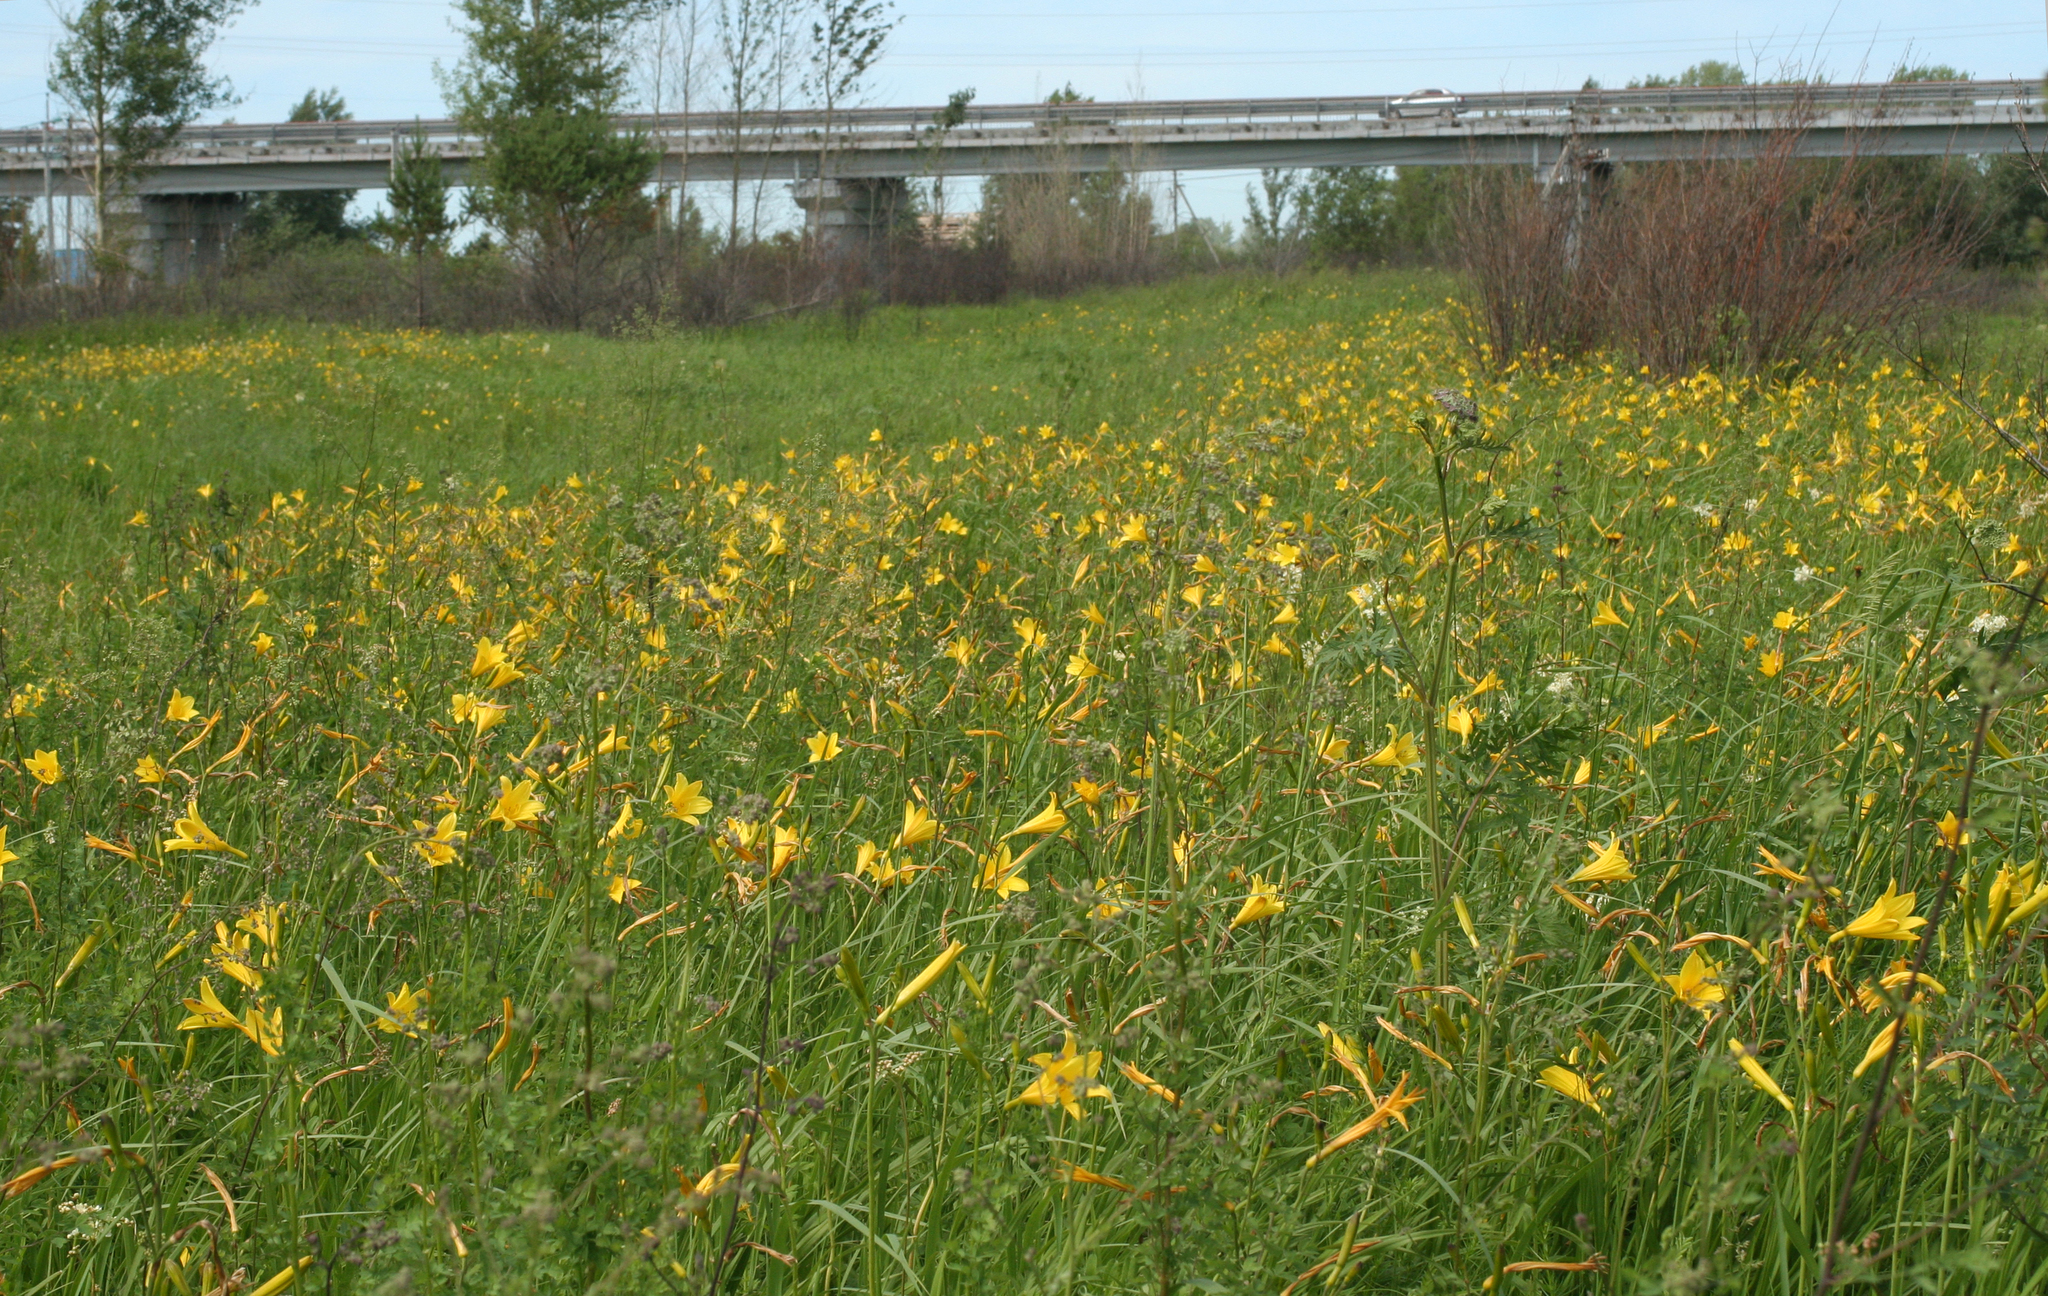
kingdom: Plantae
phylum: Tracheophyta
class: Liliopsida
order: Asparagales
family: Asphodelaceae
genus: Hemerocallis
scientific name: Hemerocallis minor
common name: Small daylily
